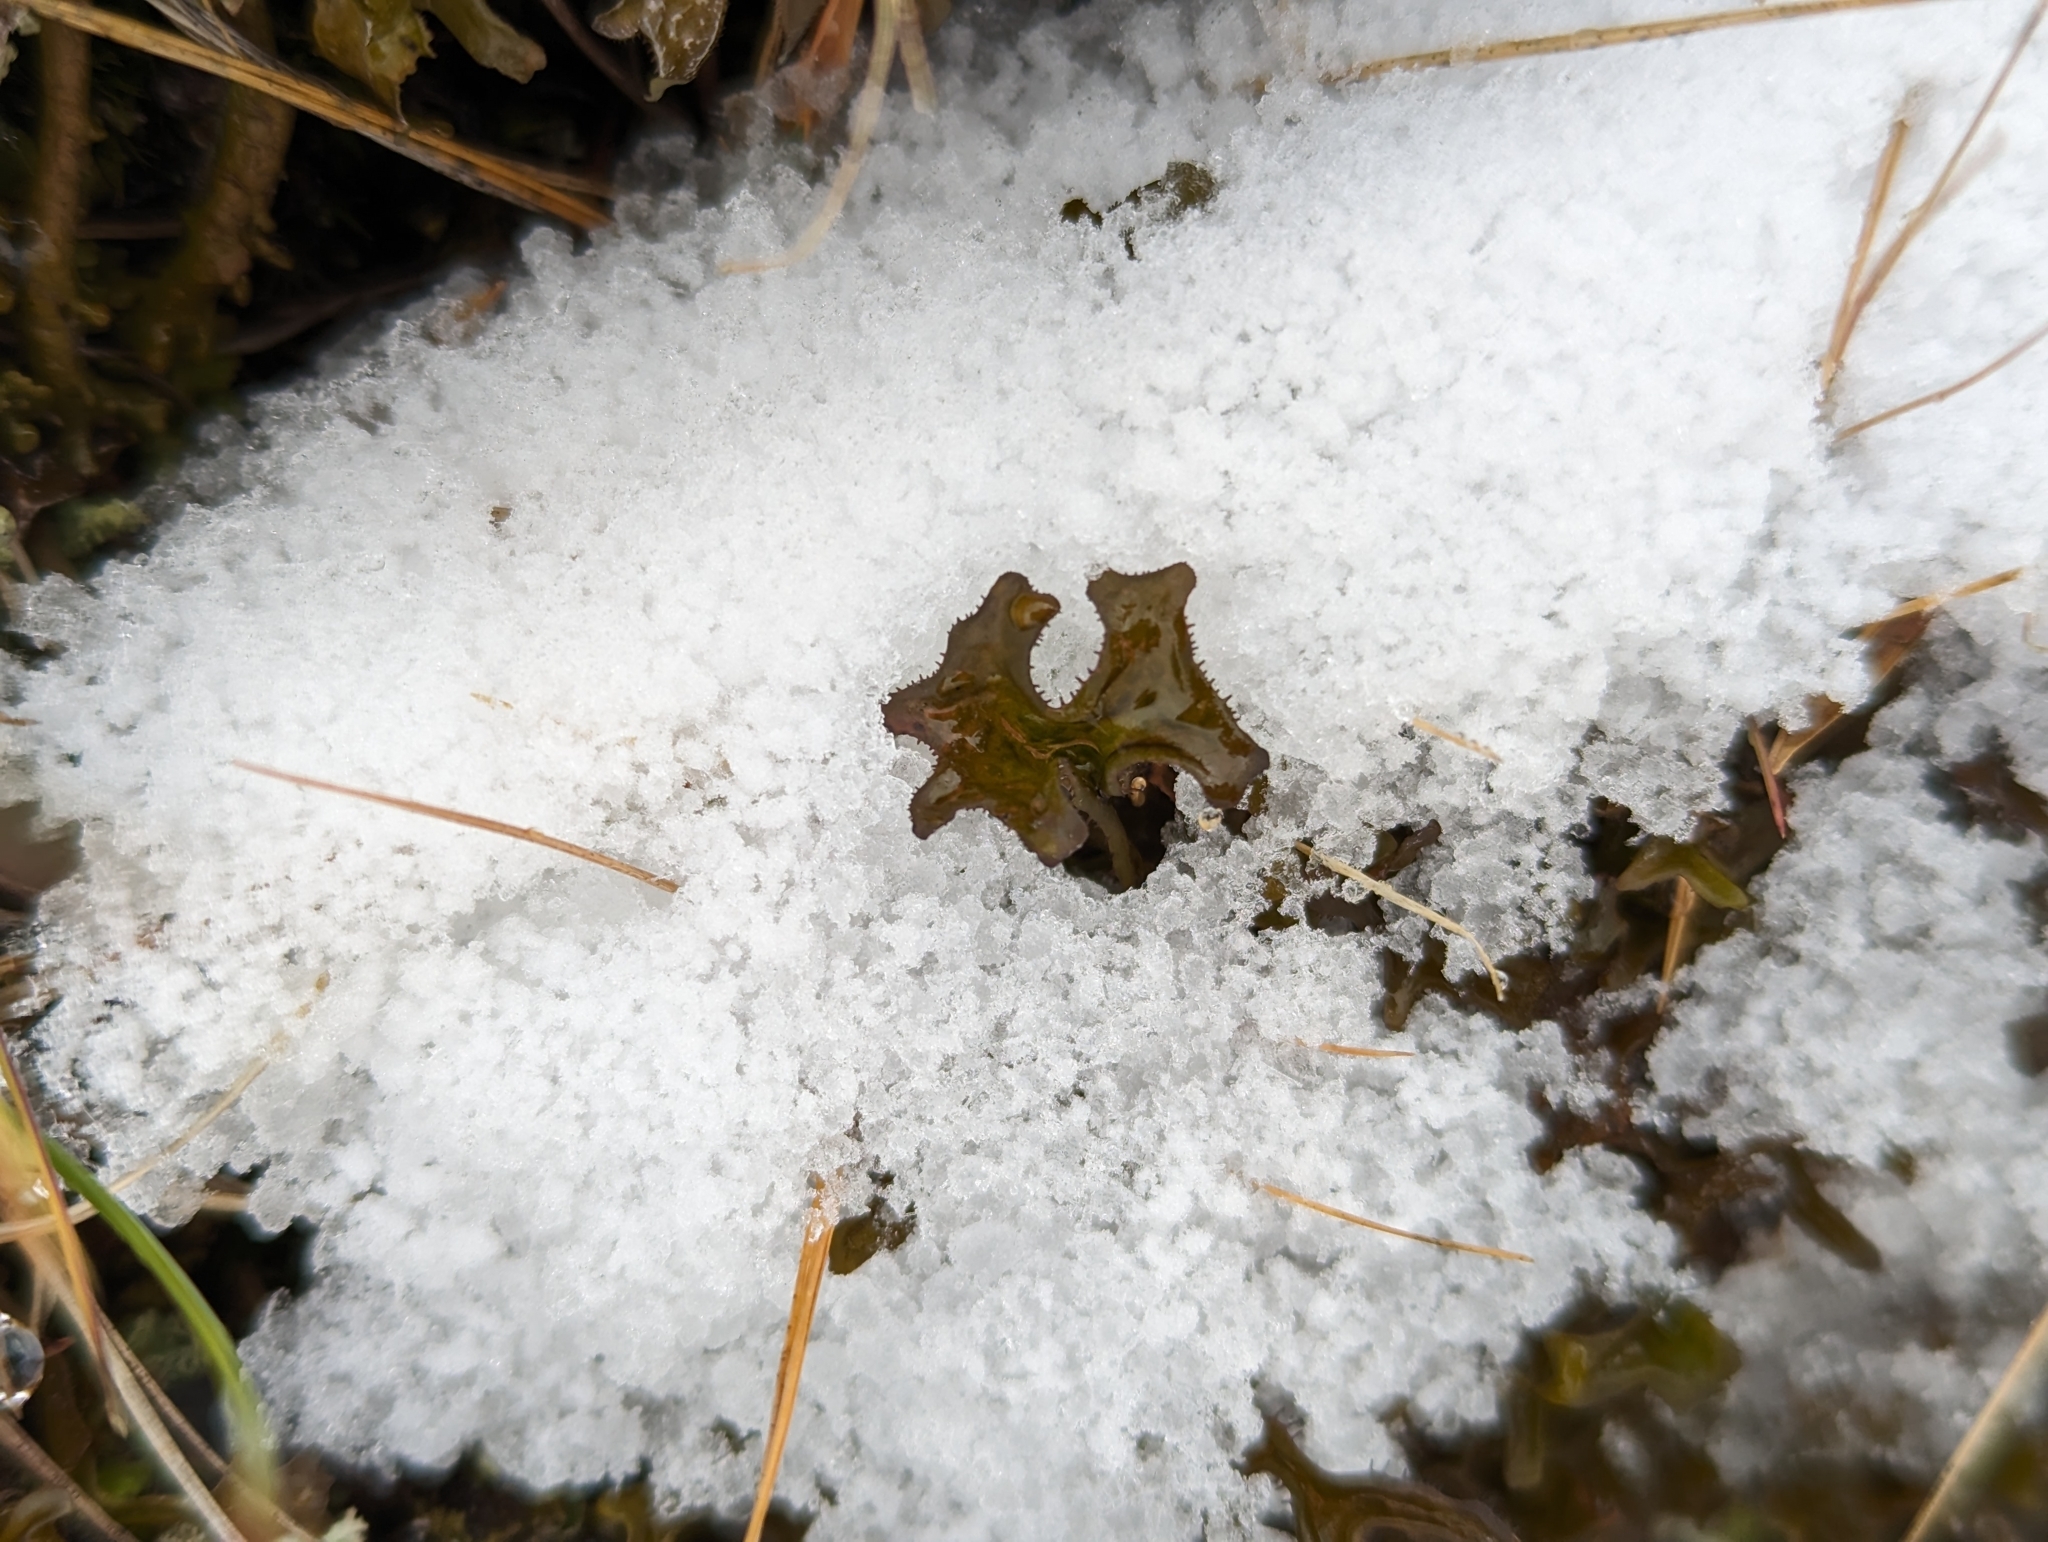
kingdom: Fungi
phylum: Ascomycota
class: Lecanoromycetes
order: Lecanorales
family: Parmeliaceae
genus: Cetraria
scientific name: Cetraria islandica
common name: Iceland lichen
